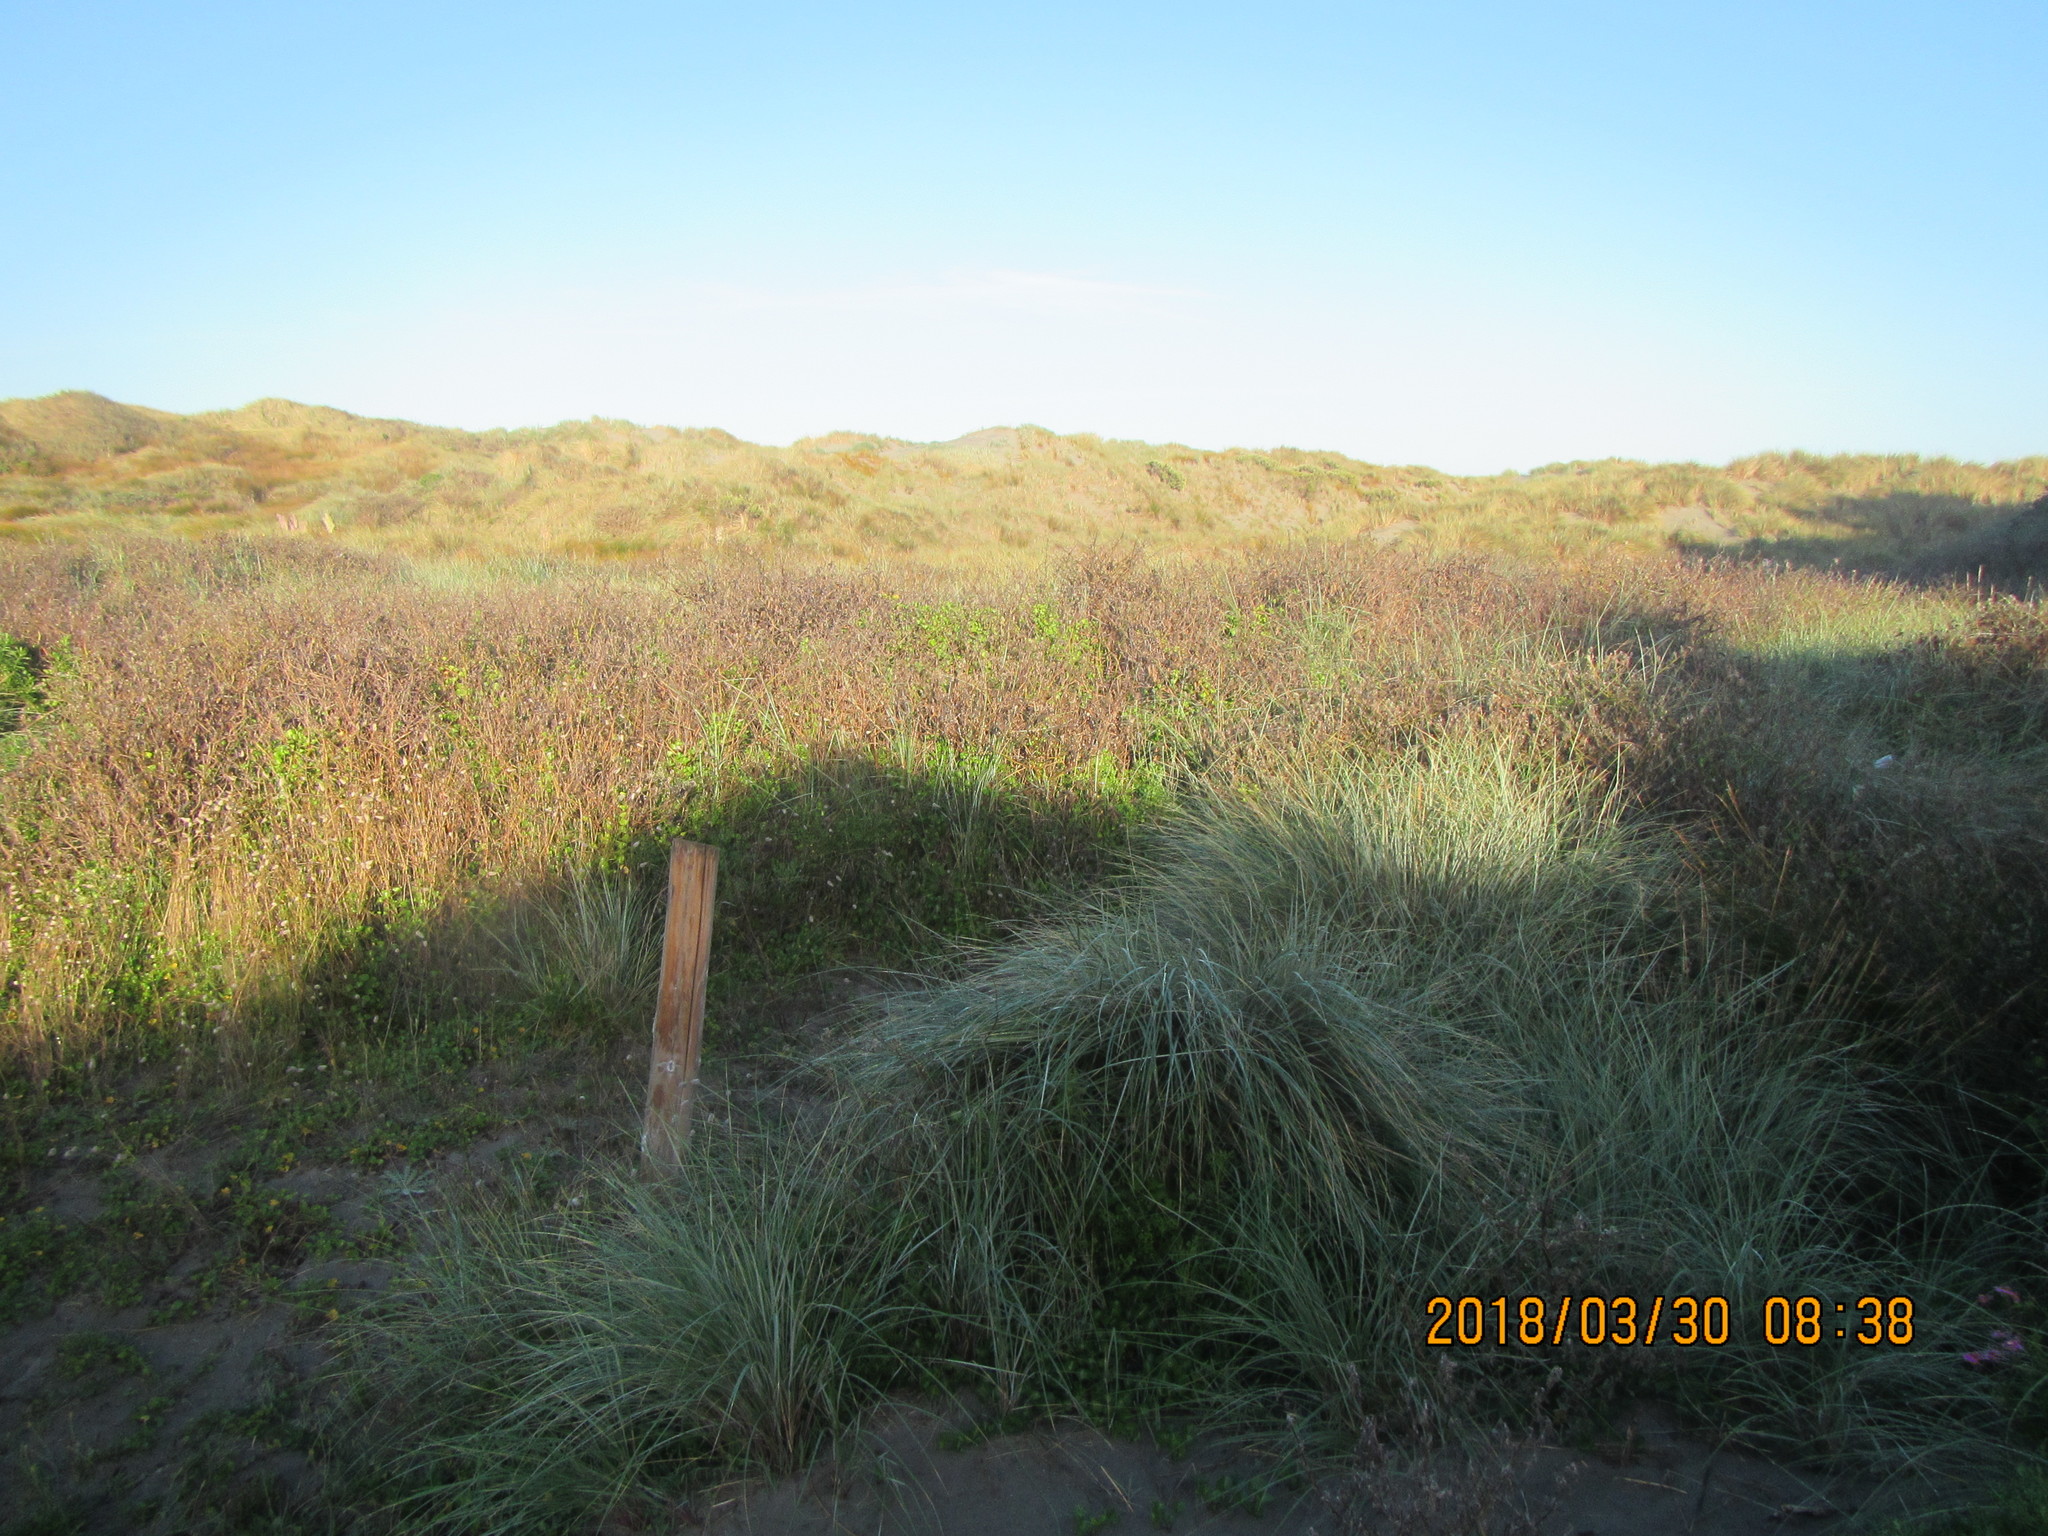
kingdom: Plantae
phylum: Tracheophyta
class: Magnoliopsida
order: Solanales
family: Convolvulaceae
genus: Calystegia
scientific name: Calystegia soldanella
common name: Sea bindweed
